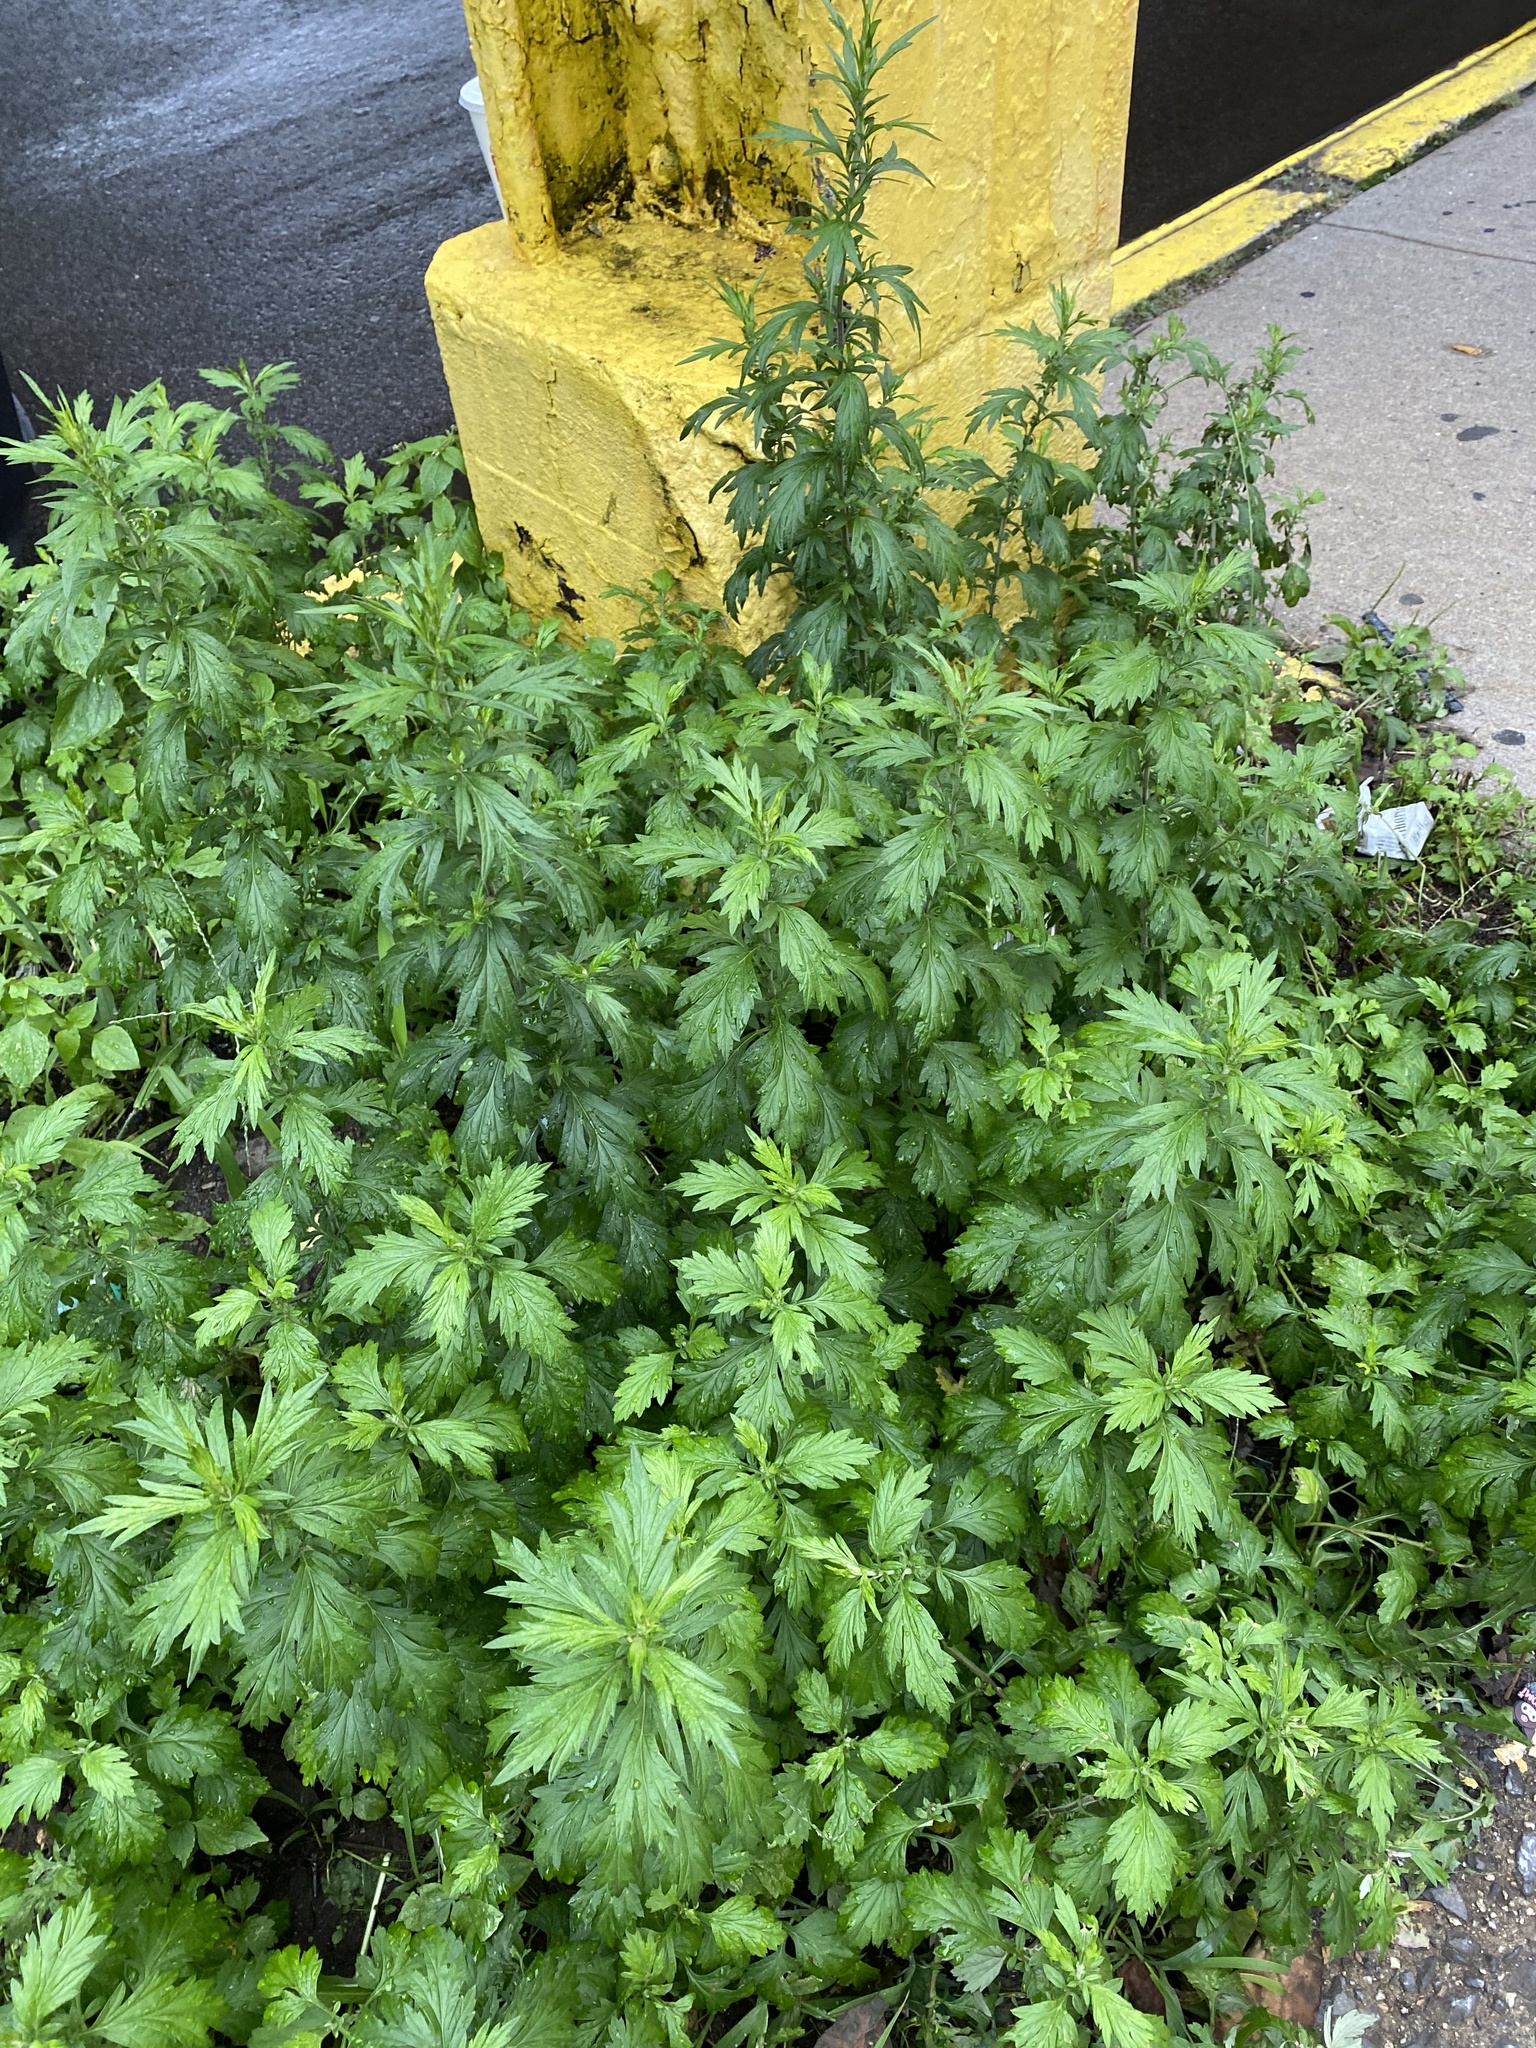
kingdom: Plantae
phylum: Tracheophyta
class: Magnoliopsida
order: Asterales
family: Asteraceae
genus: Artemisia
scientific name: Artemisia vulgaris
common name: Mugwort
